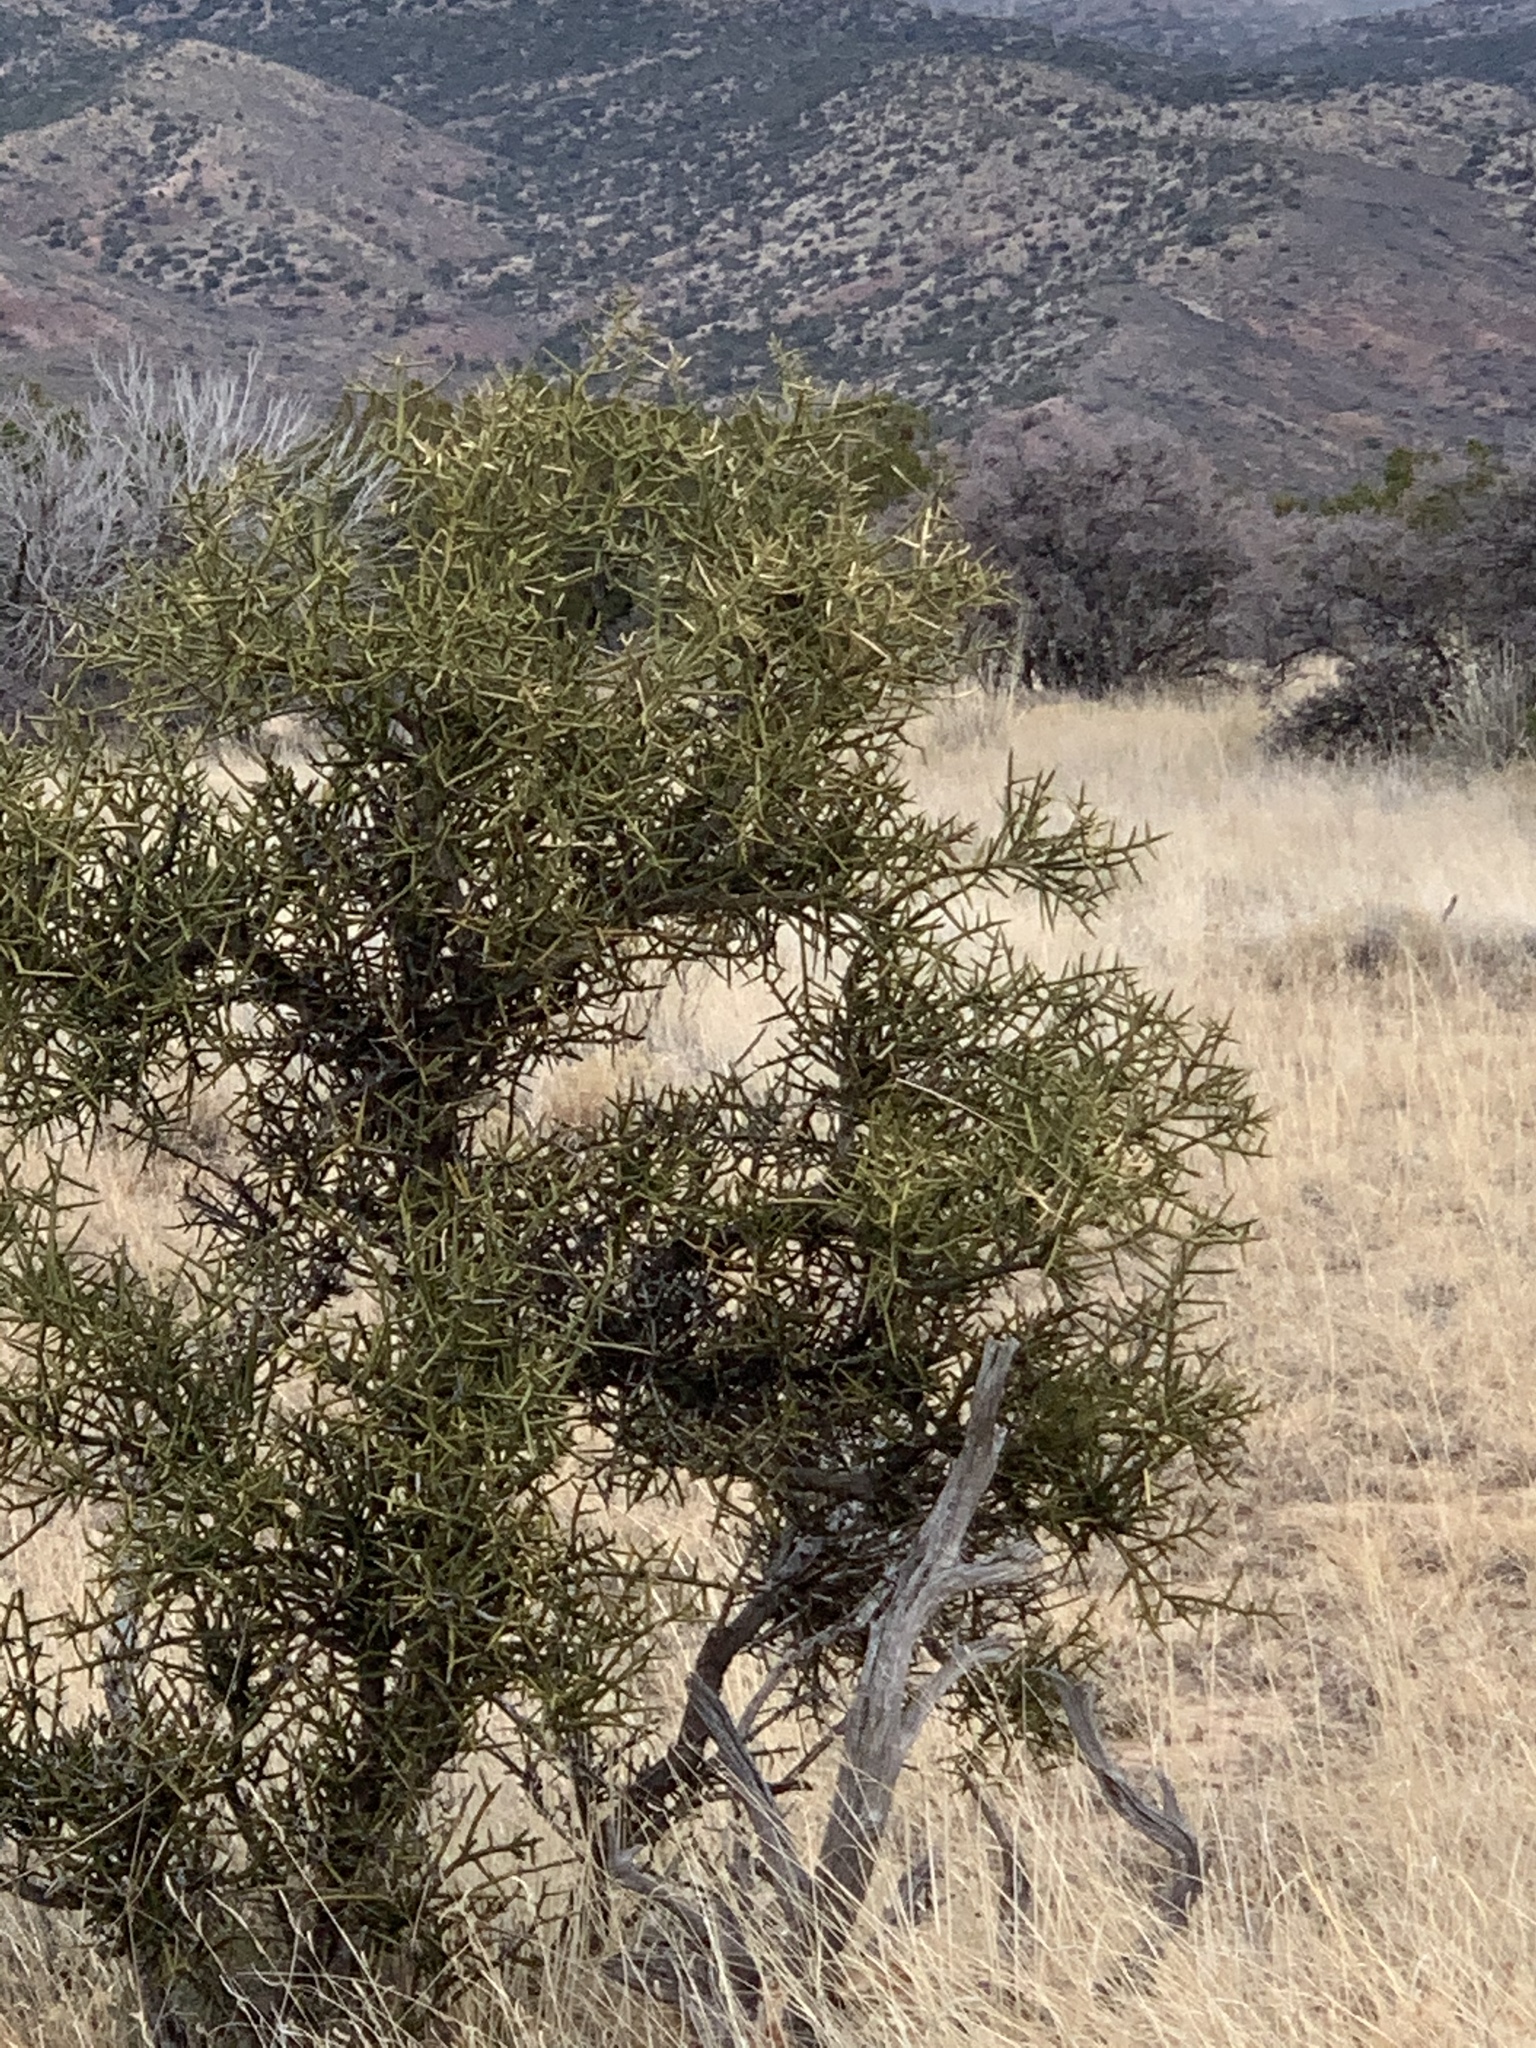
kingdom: Plantae
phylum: Tracheophyta
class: Magnoliopsida
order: Brassicales
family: Koeberliniaceae
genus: Koeberlinia
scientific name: Koeberlinia spinosa
